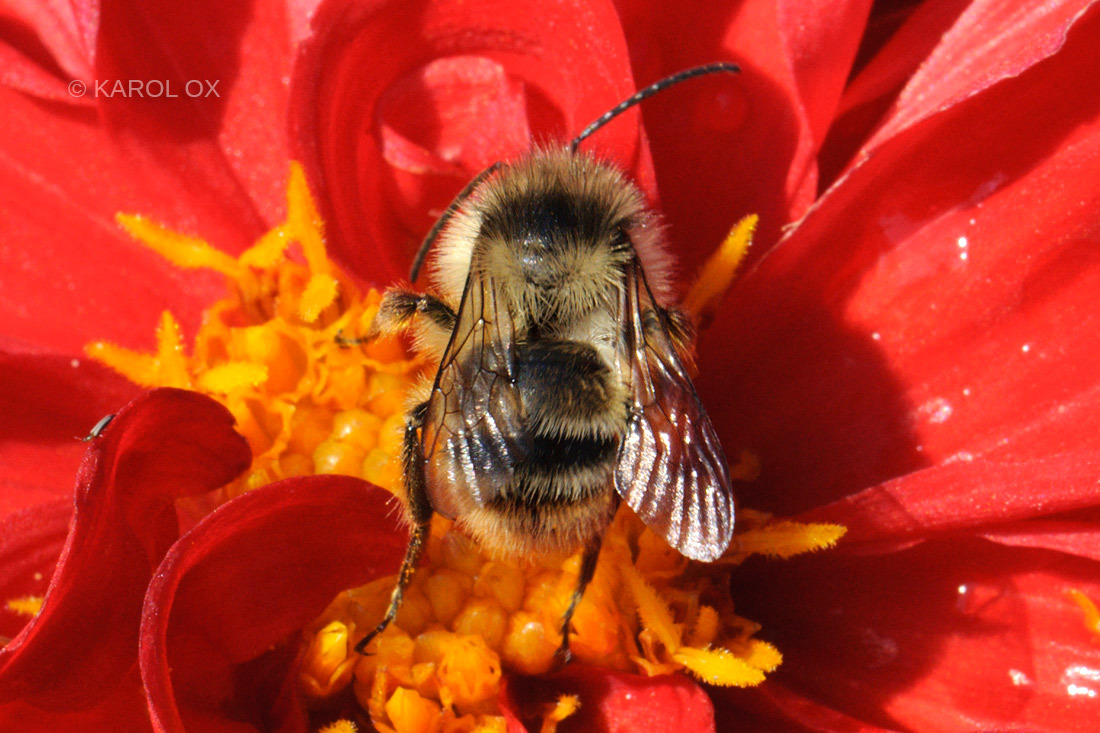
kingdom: Animalia
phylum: Arthropoda
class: Insecta
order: Hymenoptera
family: Apidae
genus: Bombus
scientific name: Bombus sylvarum
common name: Shrill carder bee
